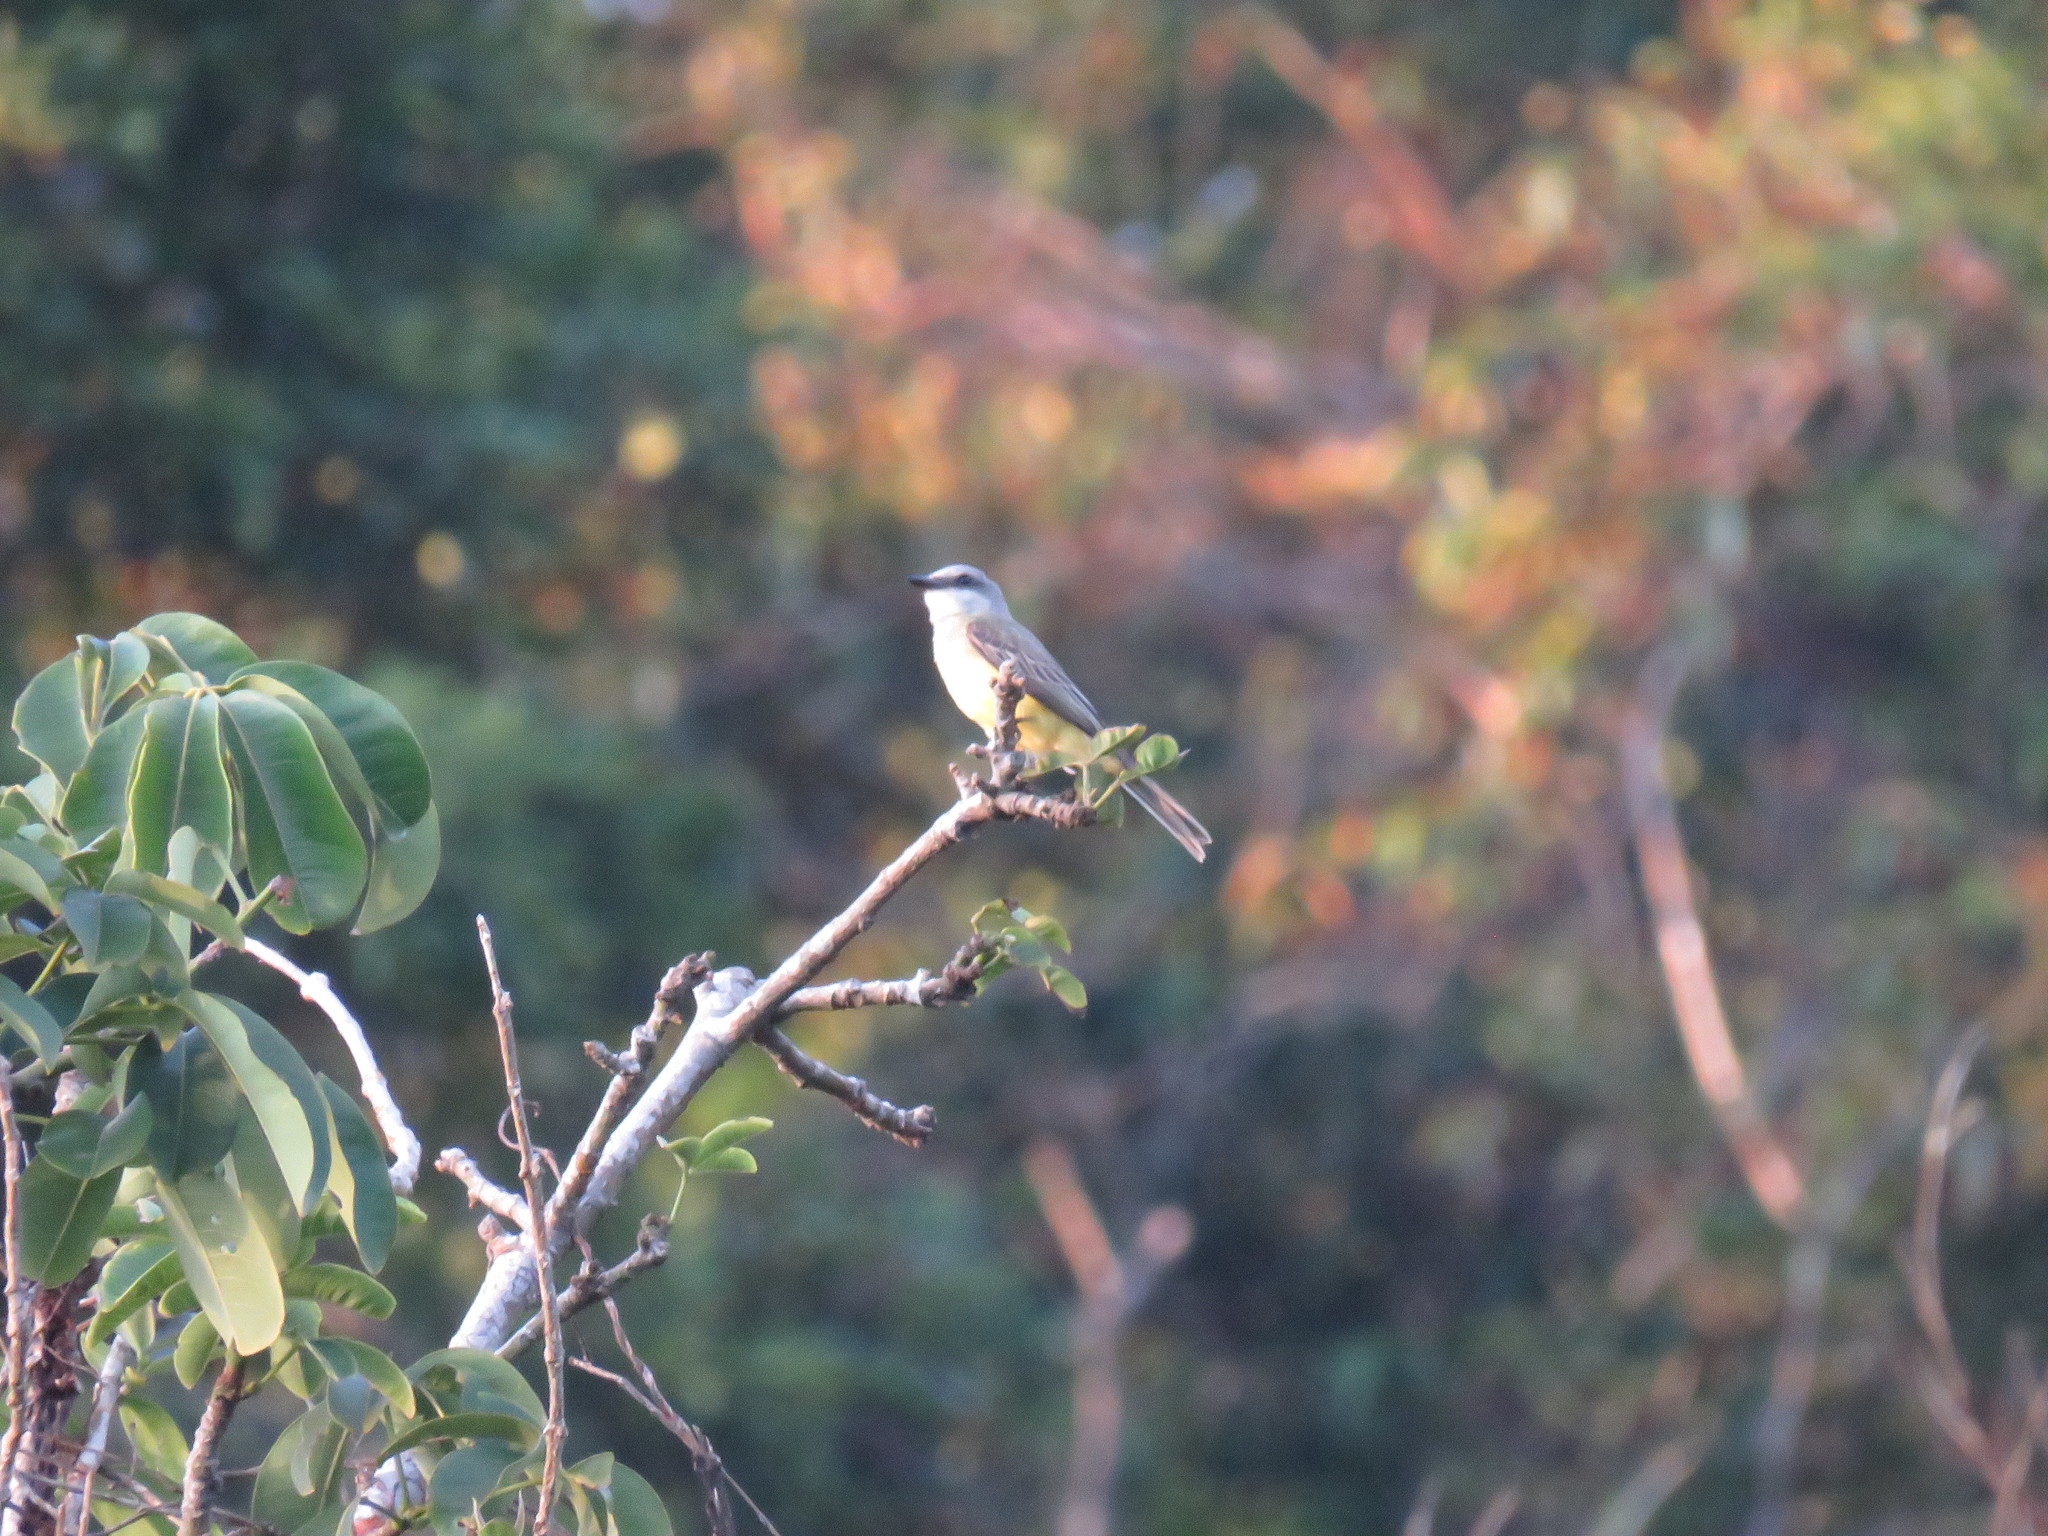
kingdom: Animalia
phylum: Chordata
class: Aves
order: Passeriformes
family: Tyrannidae
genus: Tyrannus
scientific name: Tyrannus melancholicus
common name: Tropical kingbird
